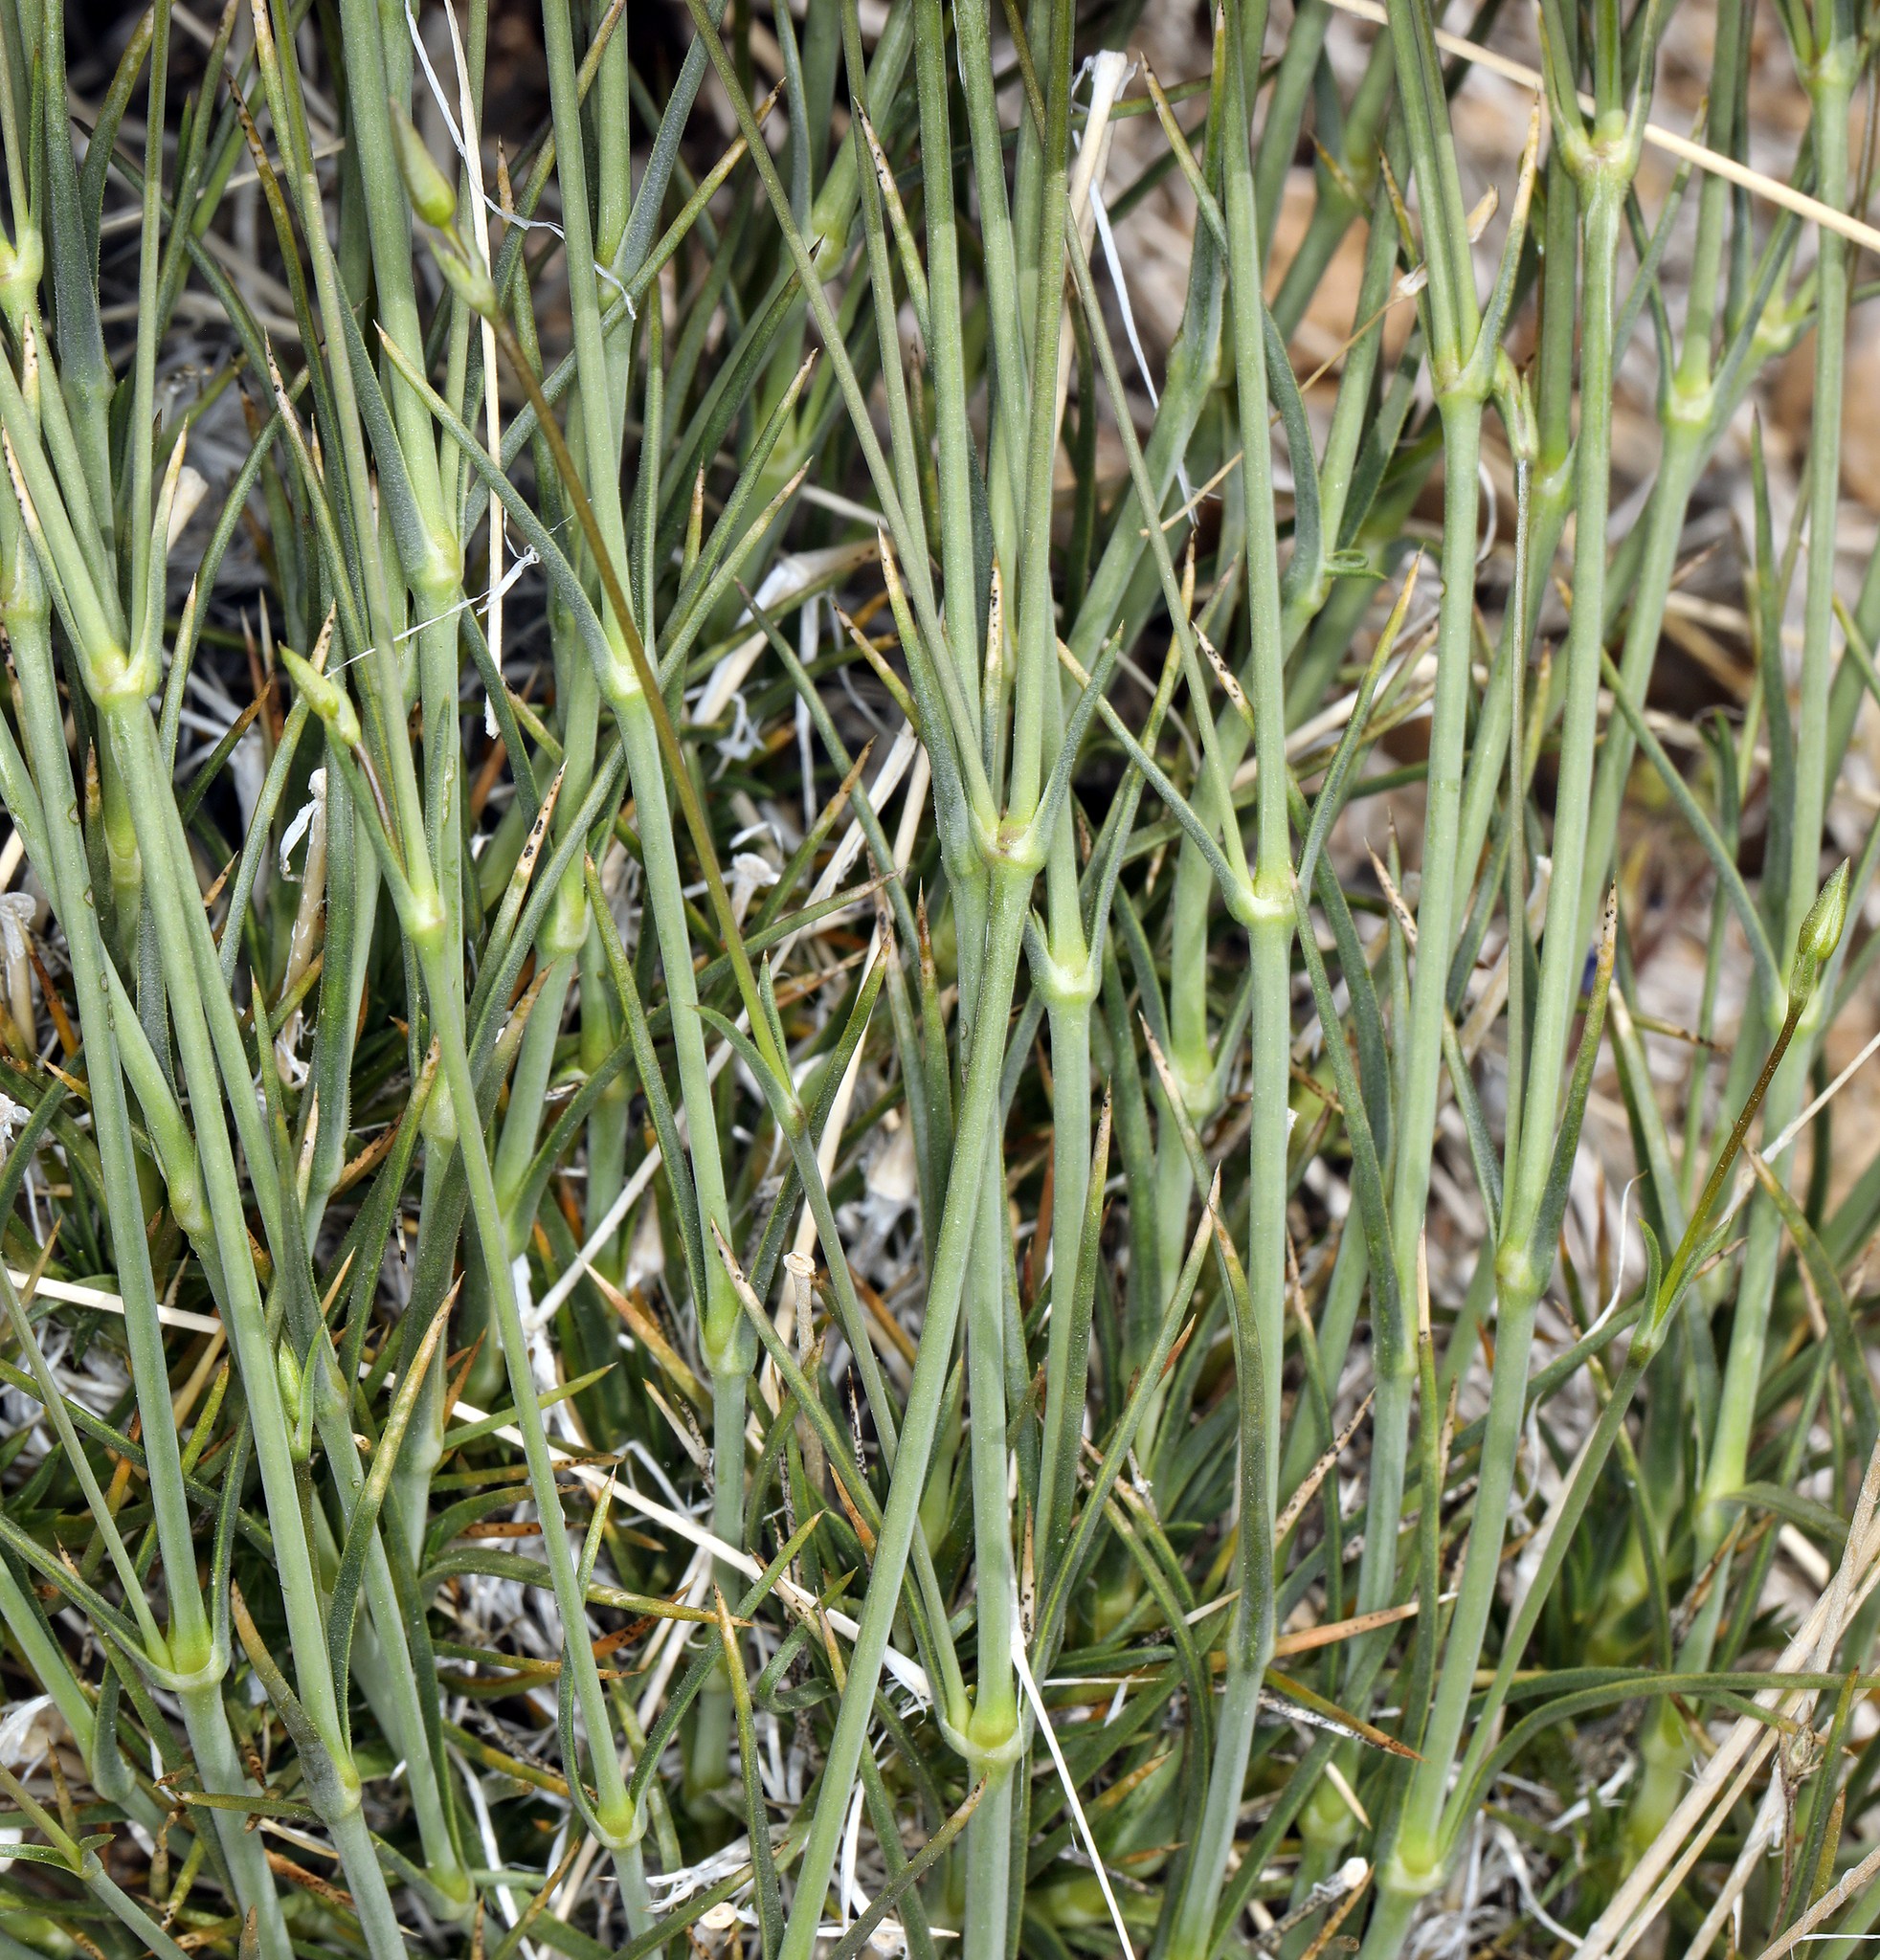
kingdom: Plantae
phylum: Tracheophyta
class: Magnoliopsida
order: Caryophyllales
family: Caryophyllaceae
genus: Eremogone
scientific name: Eremogone macradenia
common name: Mohave sandwort
